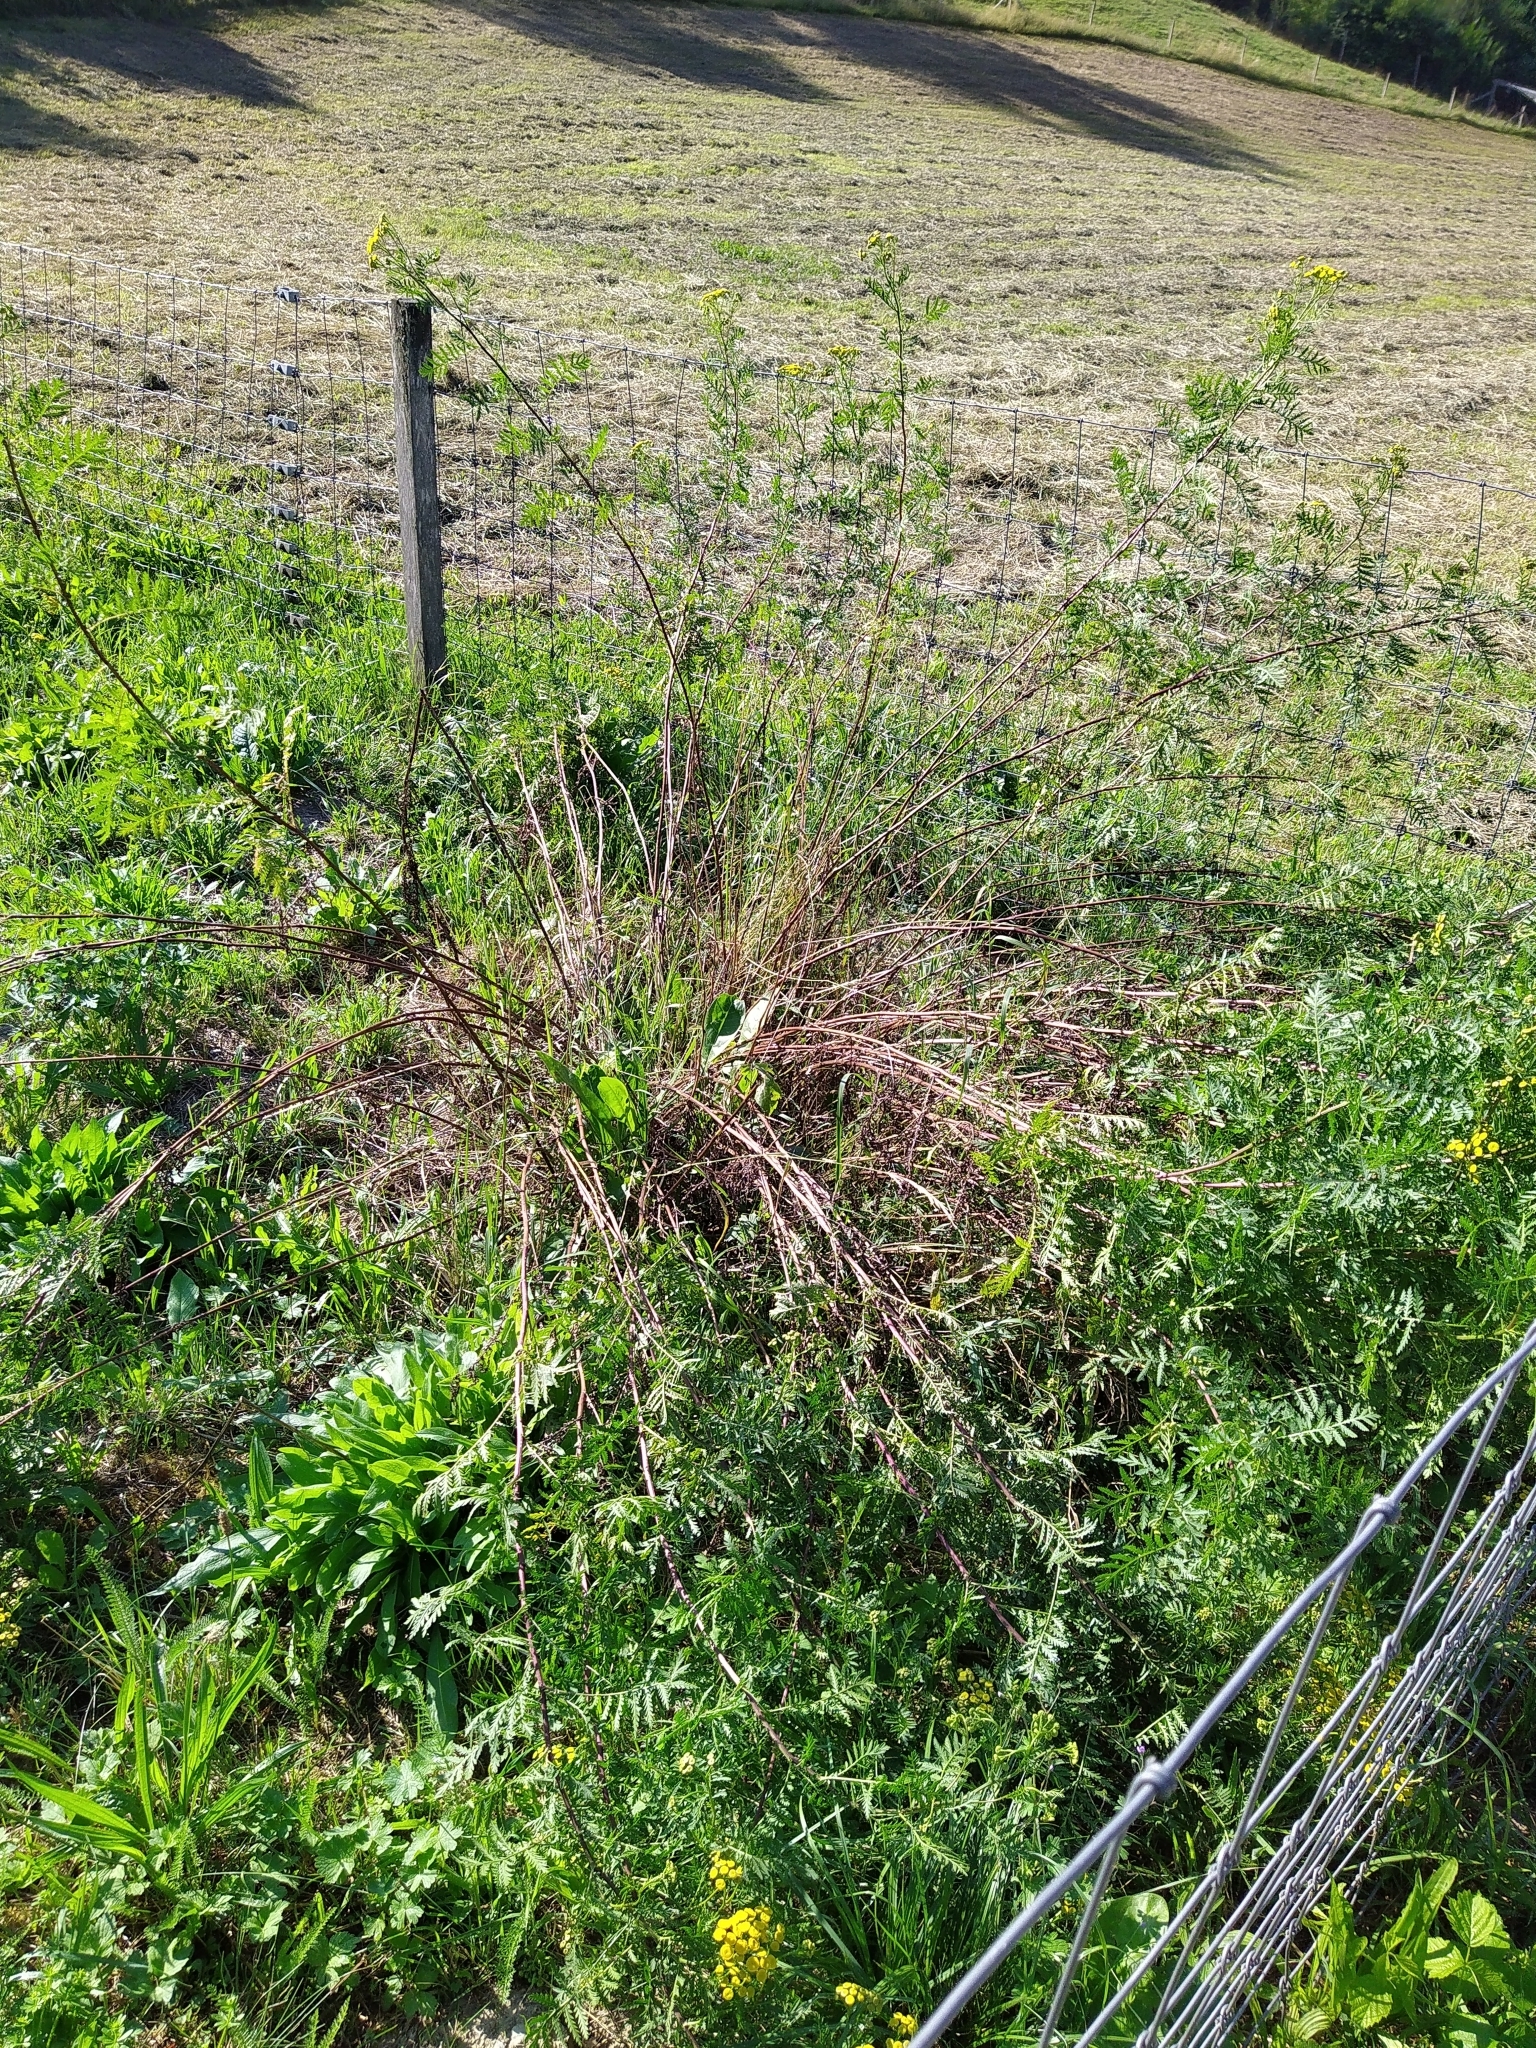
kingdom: Plantae
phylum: Tracheophyta
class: Magnoliopsida
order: Asterales
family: Asteraceae
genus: Tanacetum
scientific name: Tanacetum vulgare
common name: Common tansy
